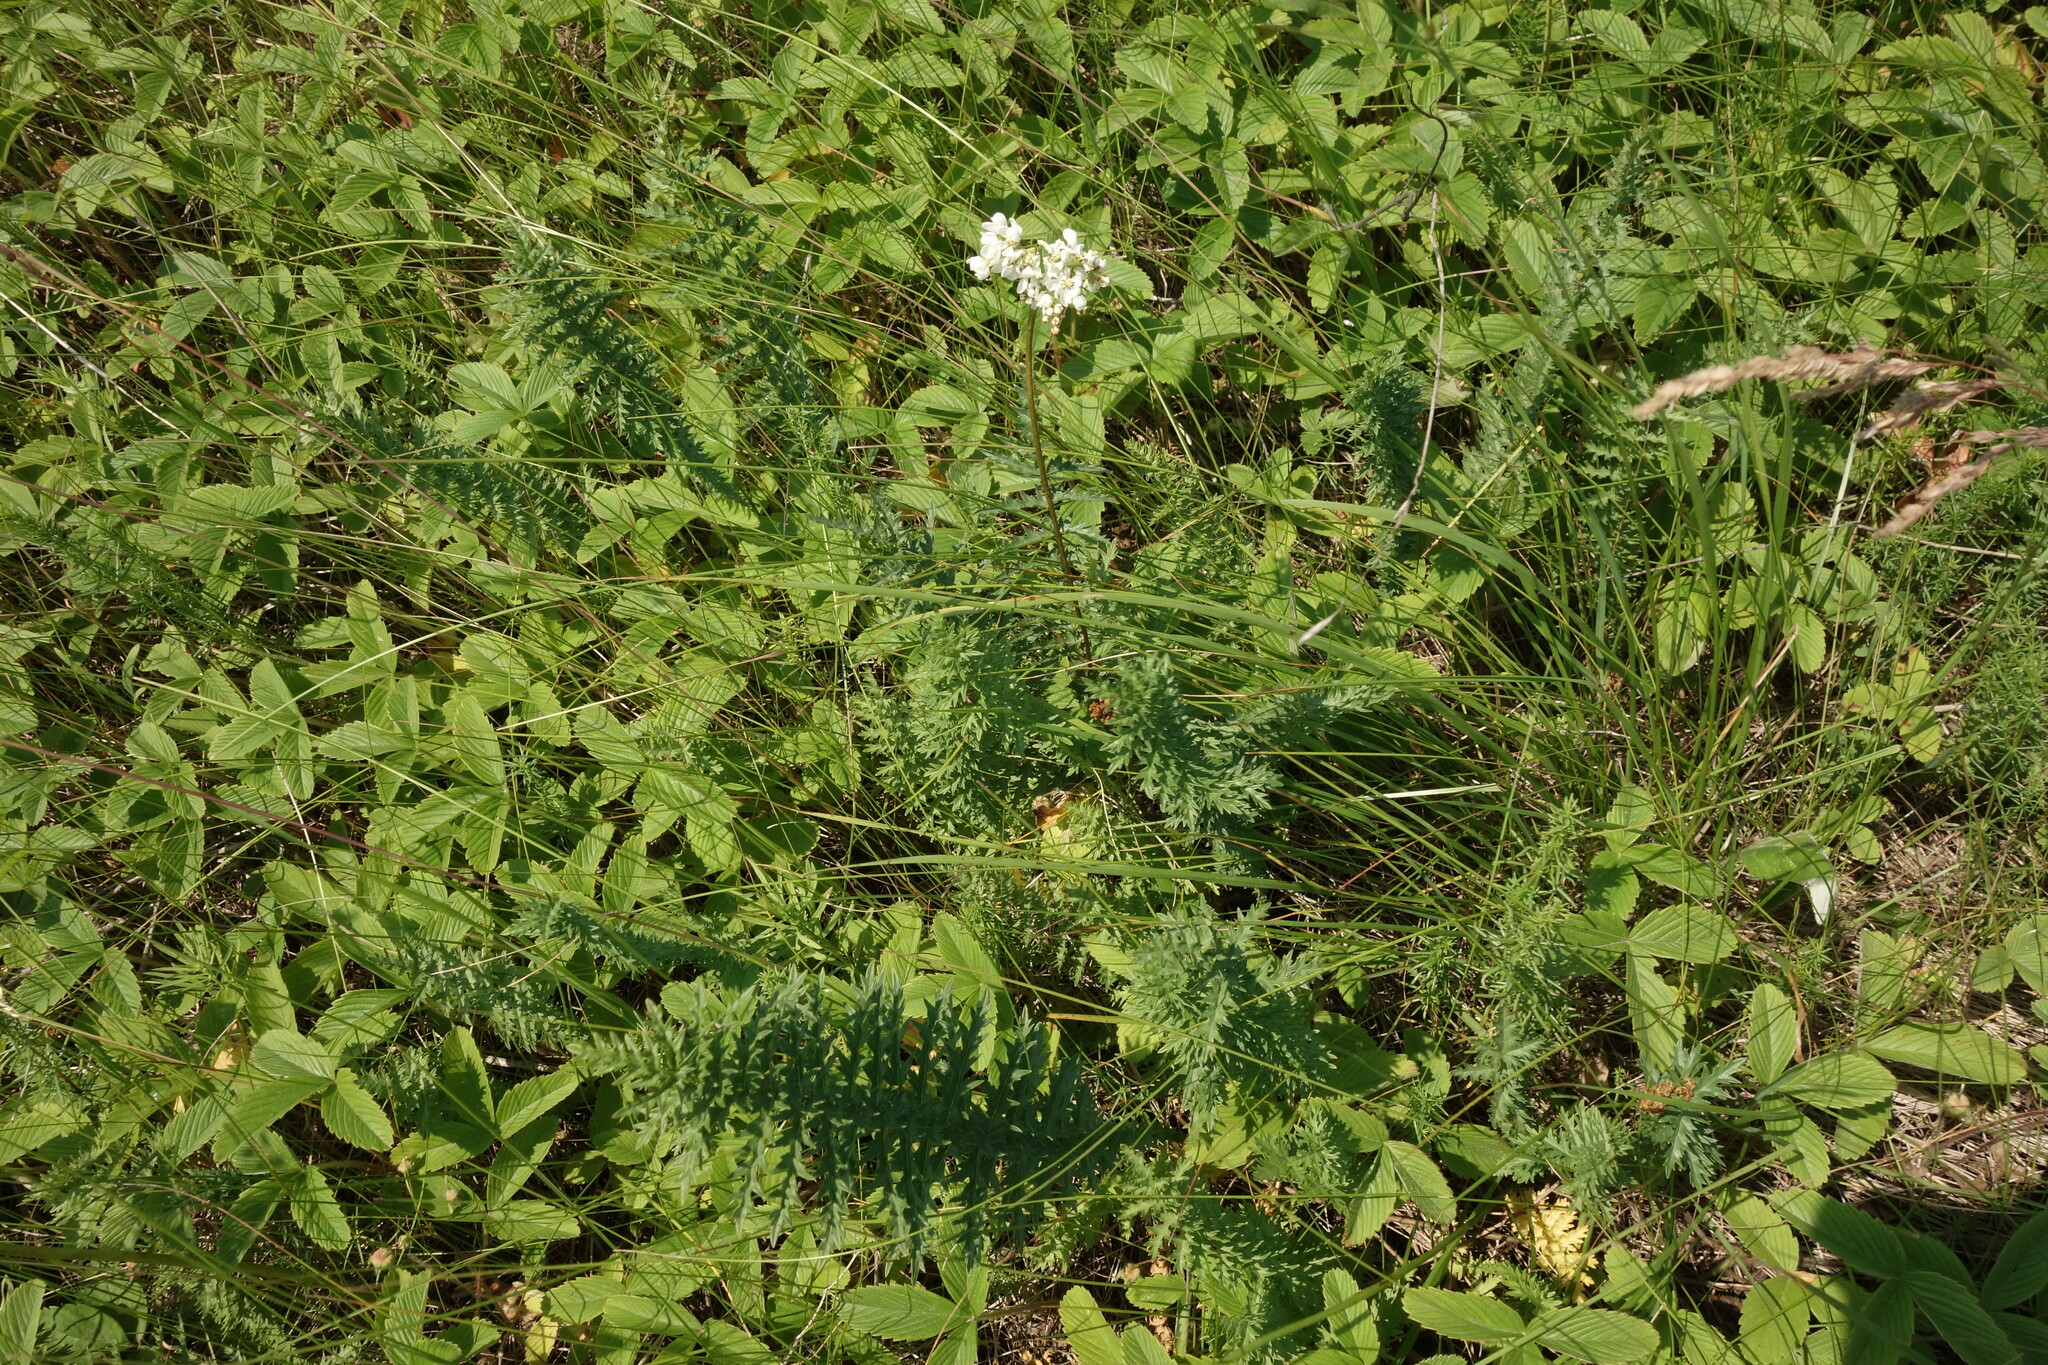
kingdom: Plantae
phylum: Tracheophyta
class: Magnoliopsida
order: Rosales
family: Rosaceae
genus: Filipendula
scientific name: Filipendula vulgaris
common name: Dropwort
